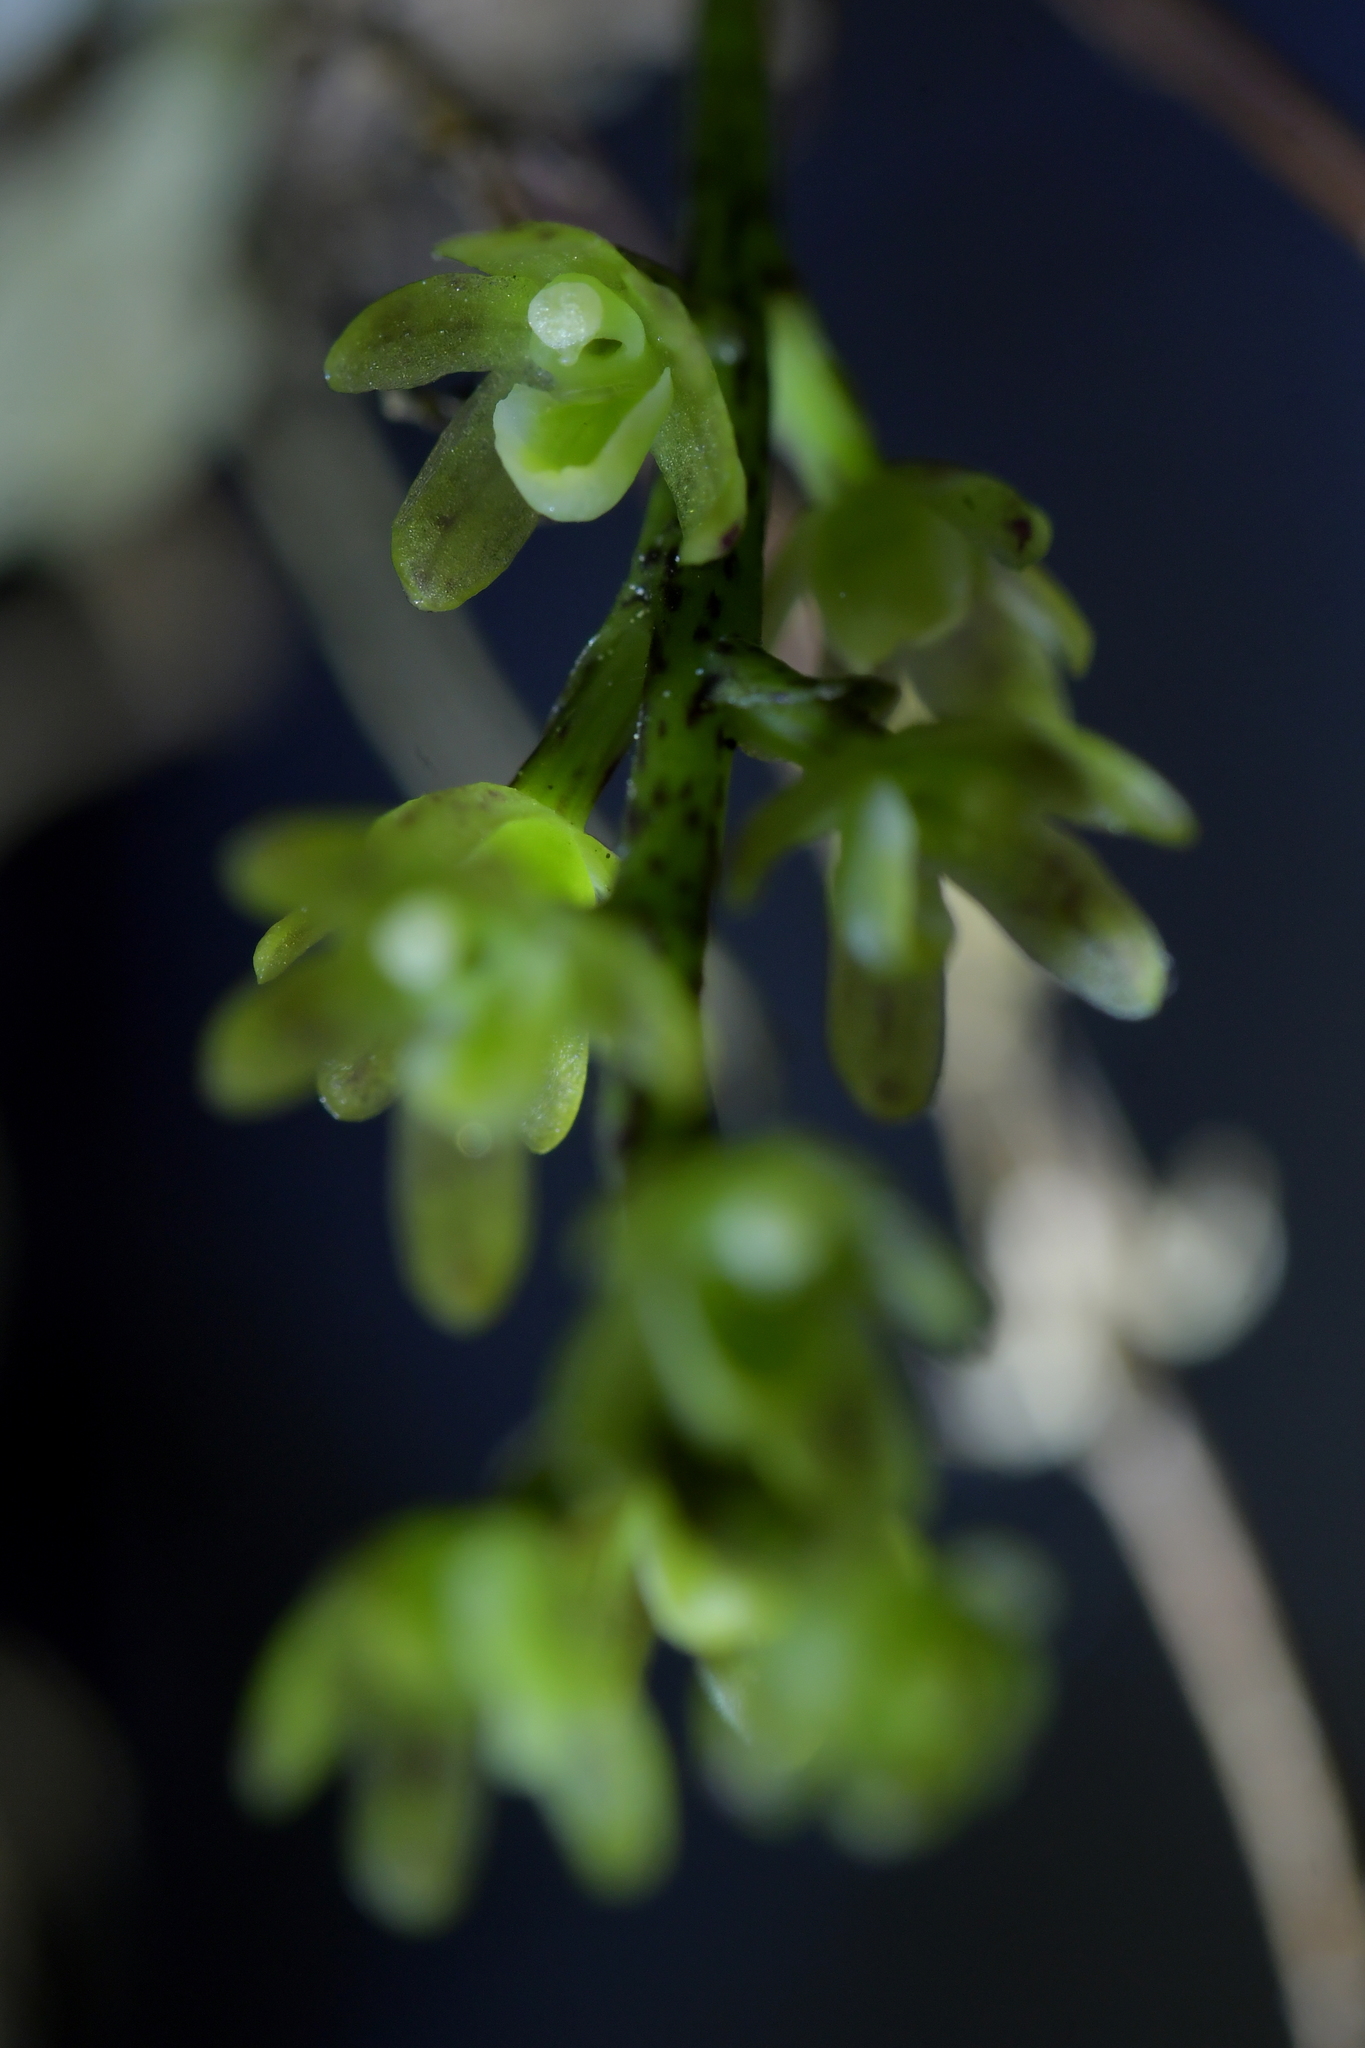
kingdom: Plantae
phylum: Tracheophyta
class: Liliopsida
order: Asparagales
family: Orchidaceae
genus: Drymoanthus
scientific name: Drymoanthus flavus
